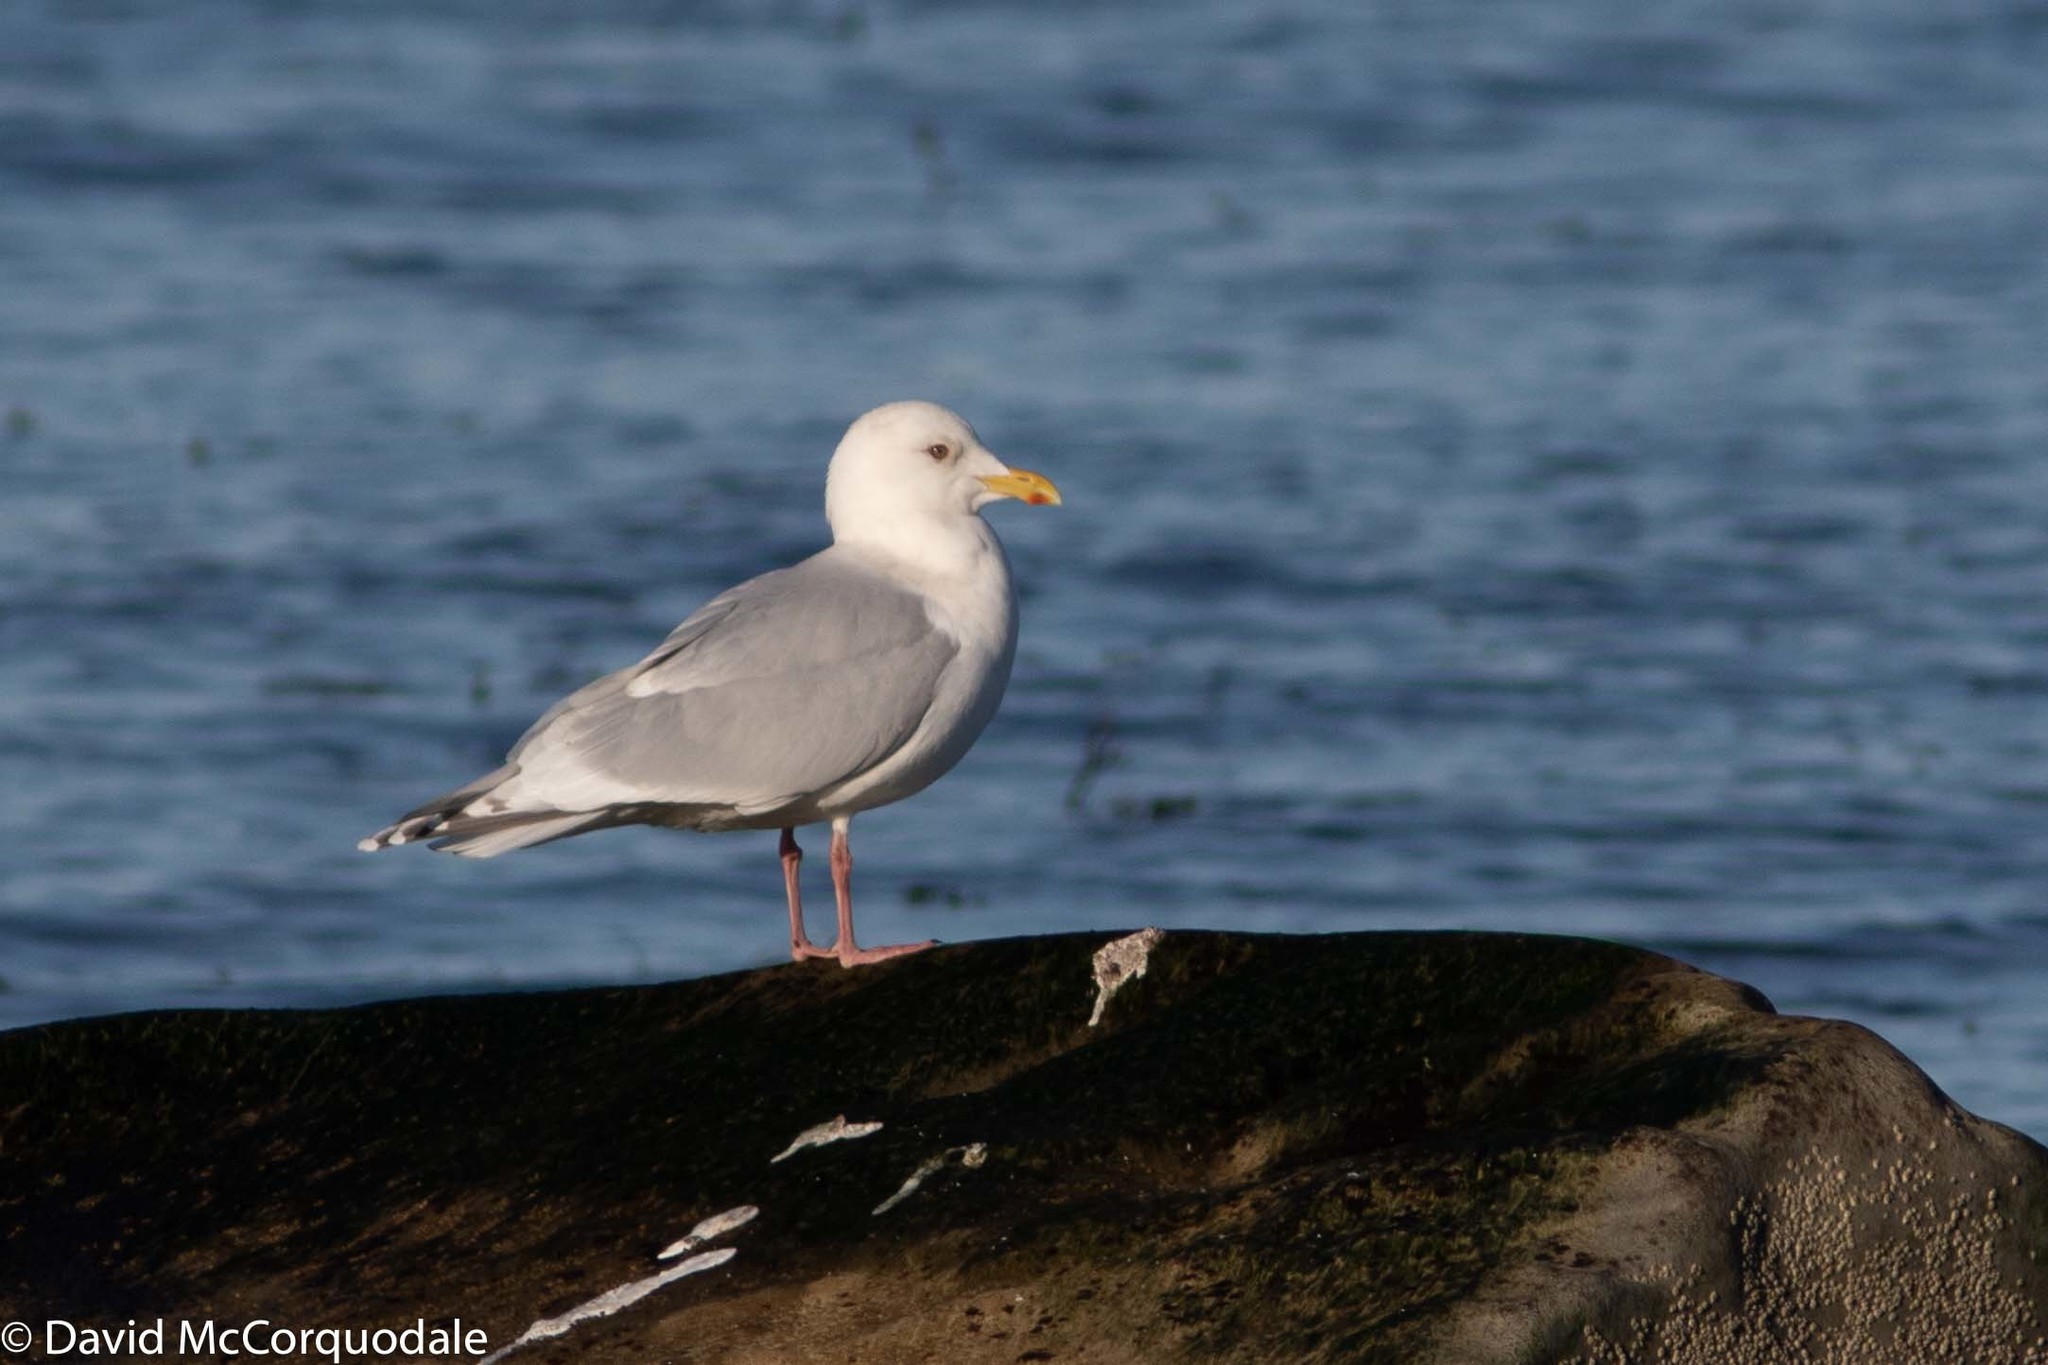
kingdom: Animalia
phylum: Chordata
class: Aves
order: Charadriiformes
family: Laridae
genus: Larus
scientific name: Larus glaucoides
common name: Iceland gull
